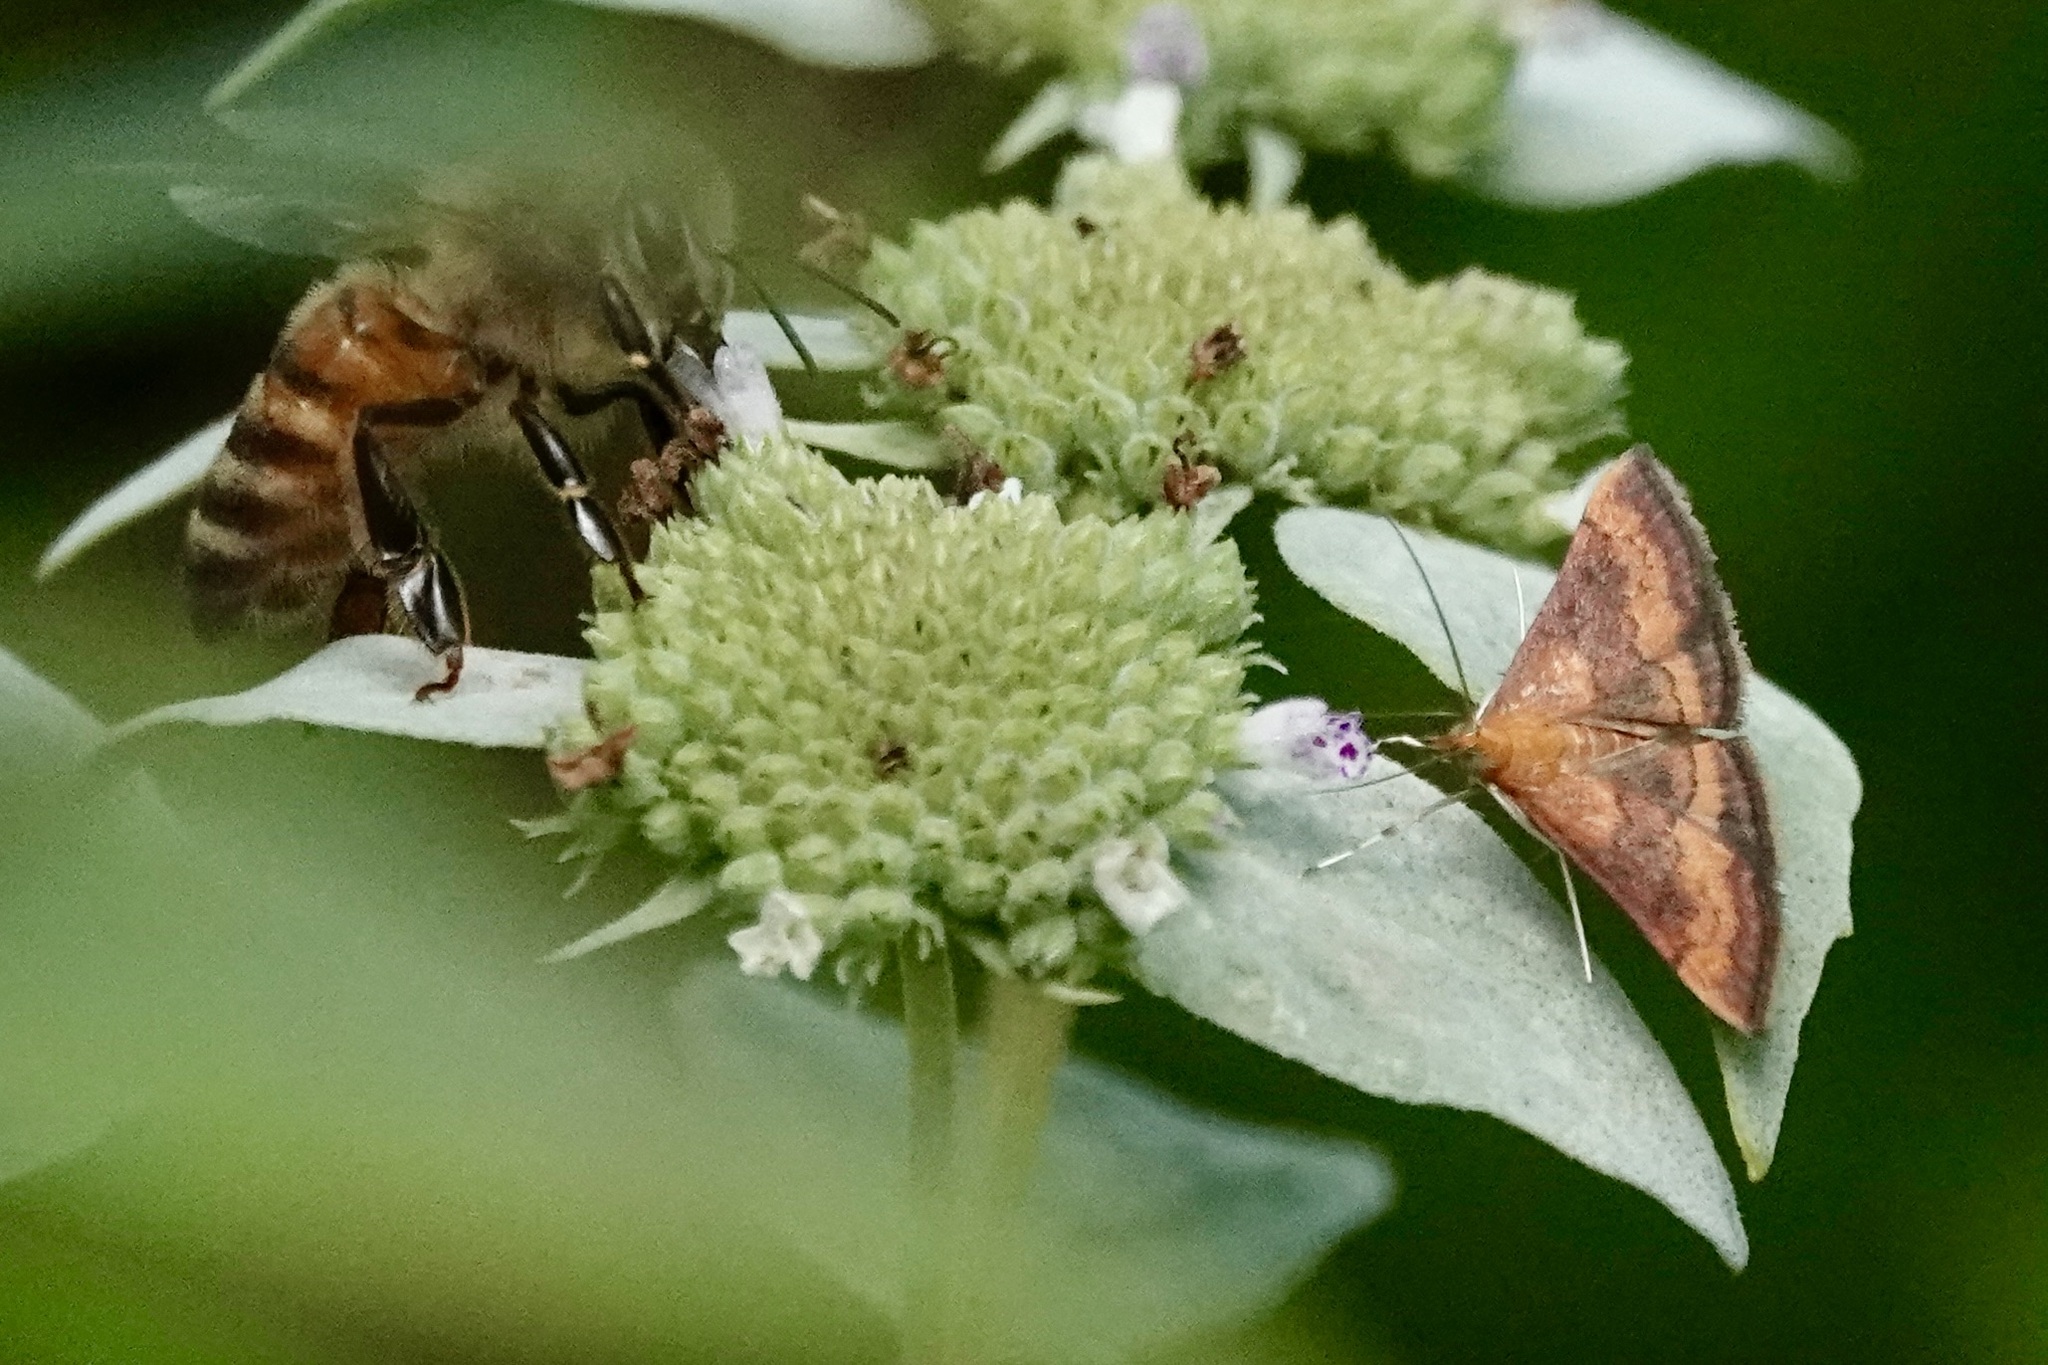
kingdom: Animalia
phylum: Arthropoda
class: Insecta
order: Lepidoptera
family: Crambidae
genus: Pyrausta
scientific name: Pyrausta rubricalis
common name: Variable reddish pyrausta
